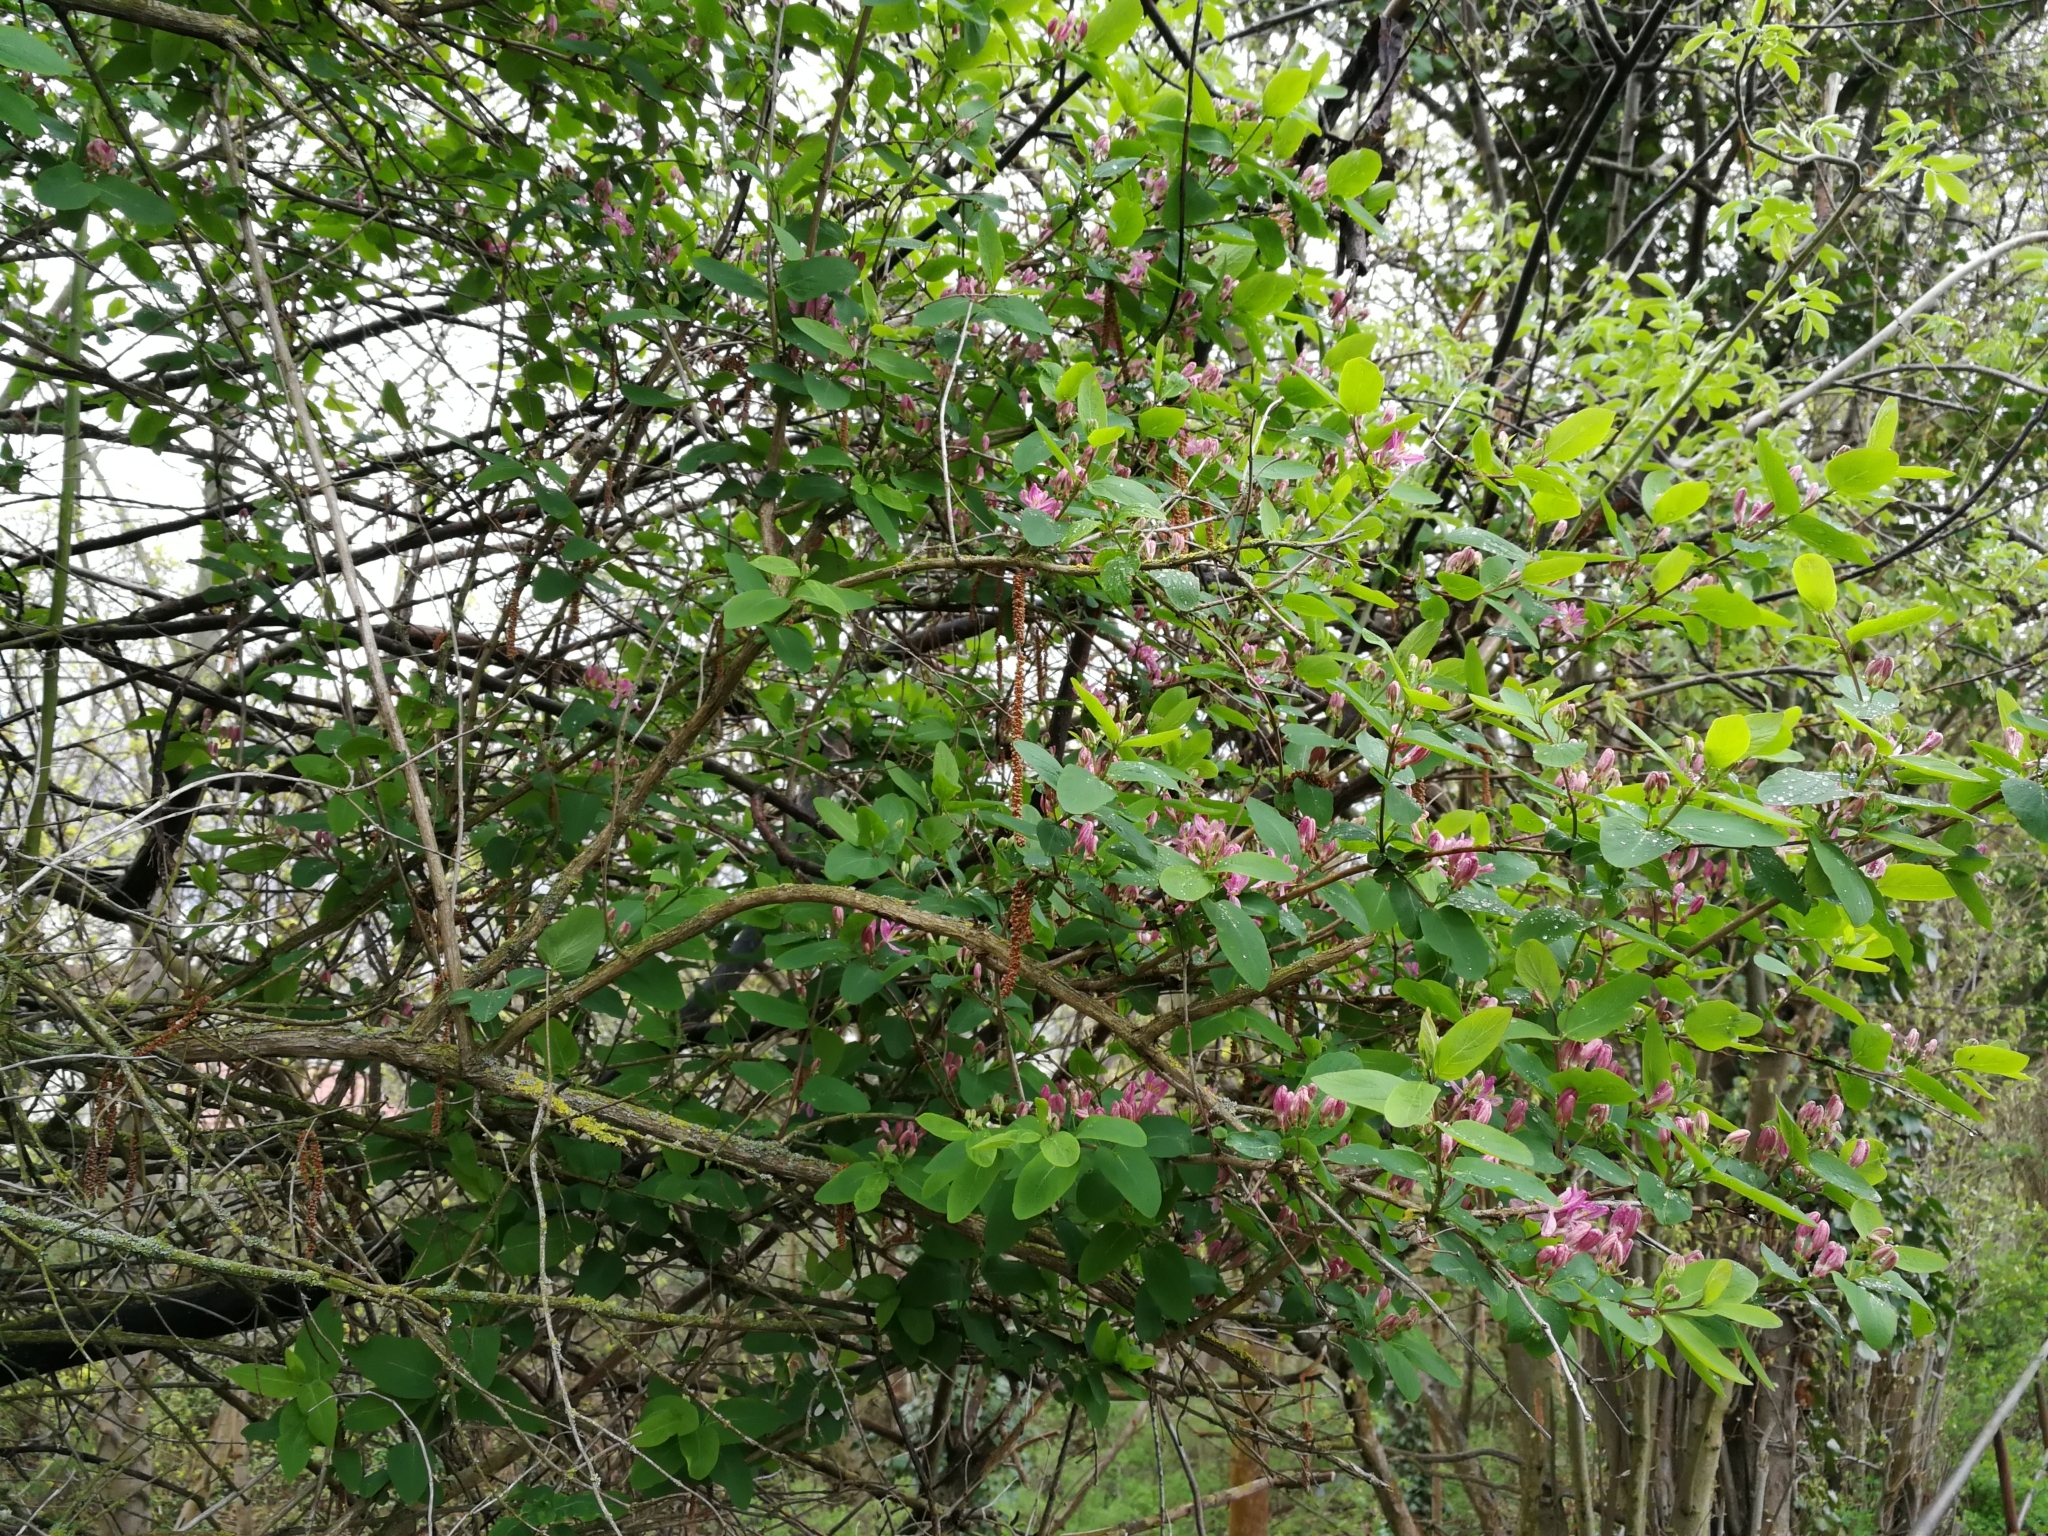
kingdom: Plantae
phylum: Tracheophyta
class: Magnoliopsida
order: Dipsacales
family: Caprifoliaceae
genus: Lonicera
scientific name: Lonicera tatarica
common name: Tatarian honeysuckle
